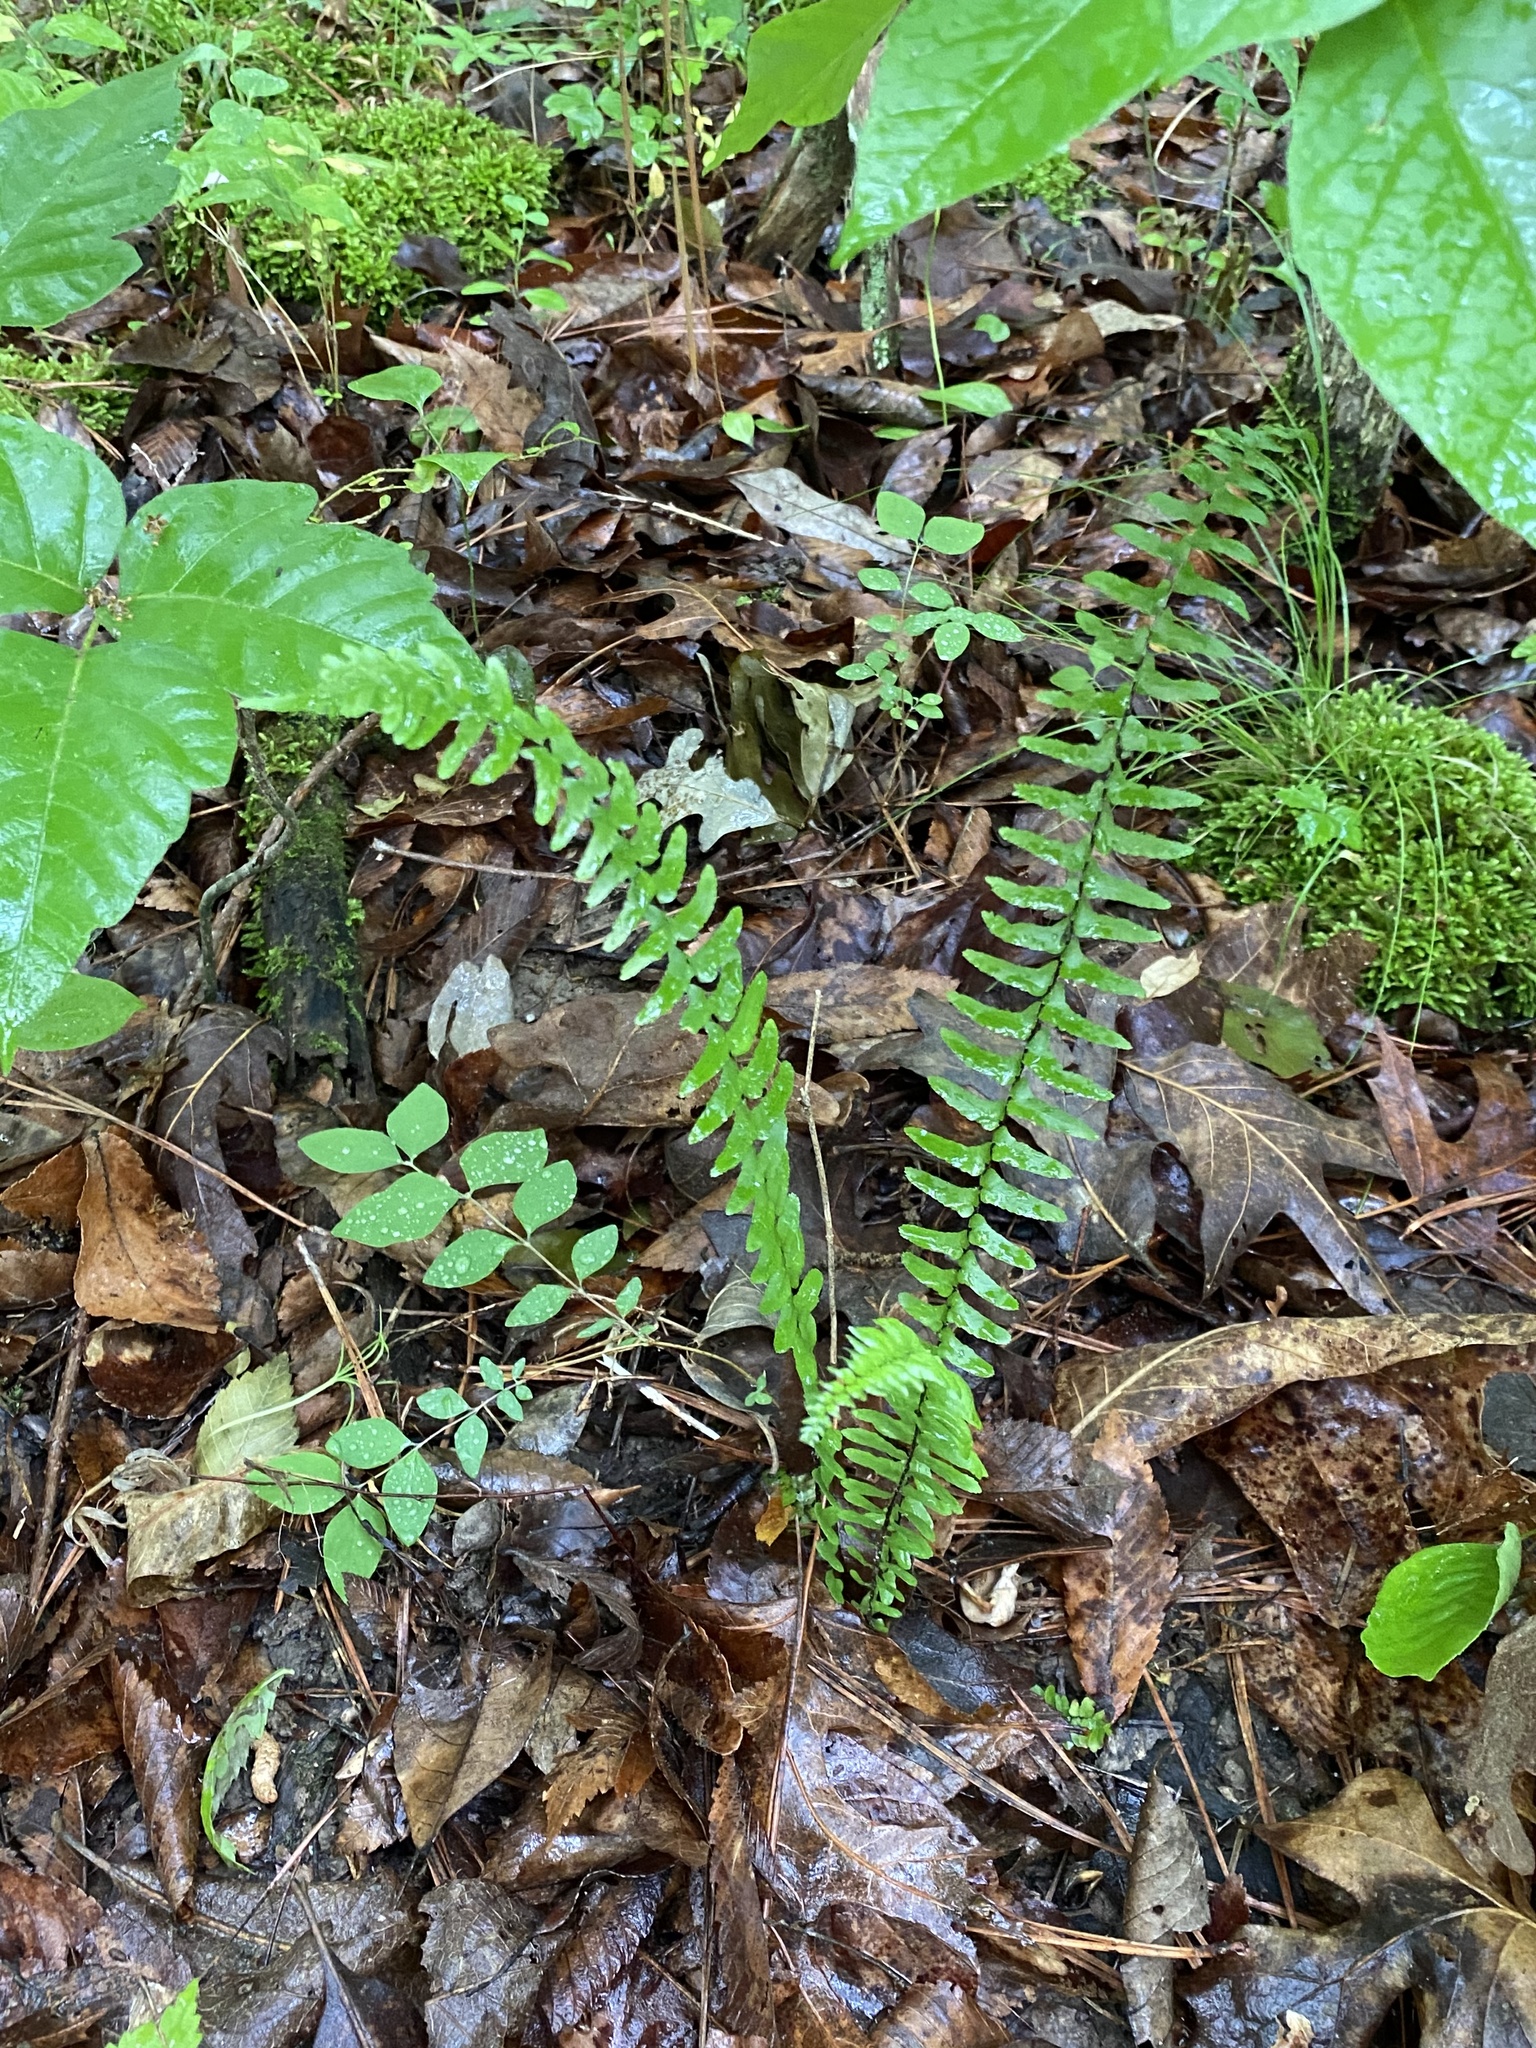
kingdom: Plantae
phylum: Tracheophyta
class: Polypodiopsida
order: Polypodiales
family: Aspleniaceae
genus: Asplenium
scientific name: Asplenium platyneuron
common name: Ebony spleenwort
